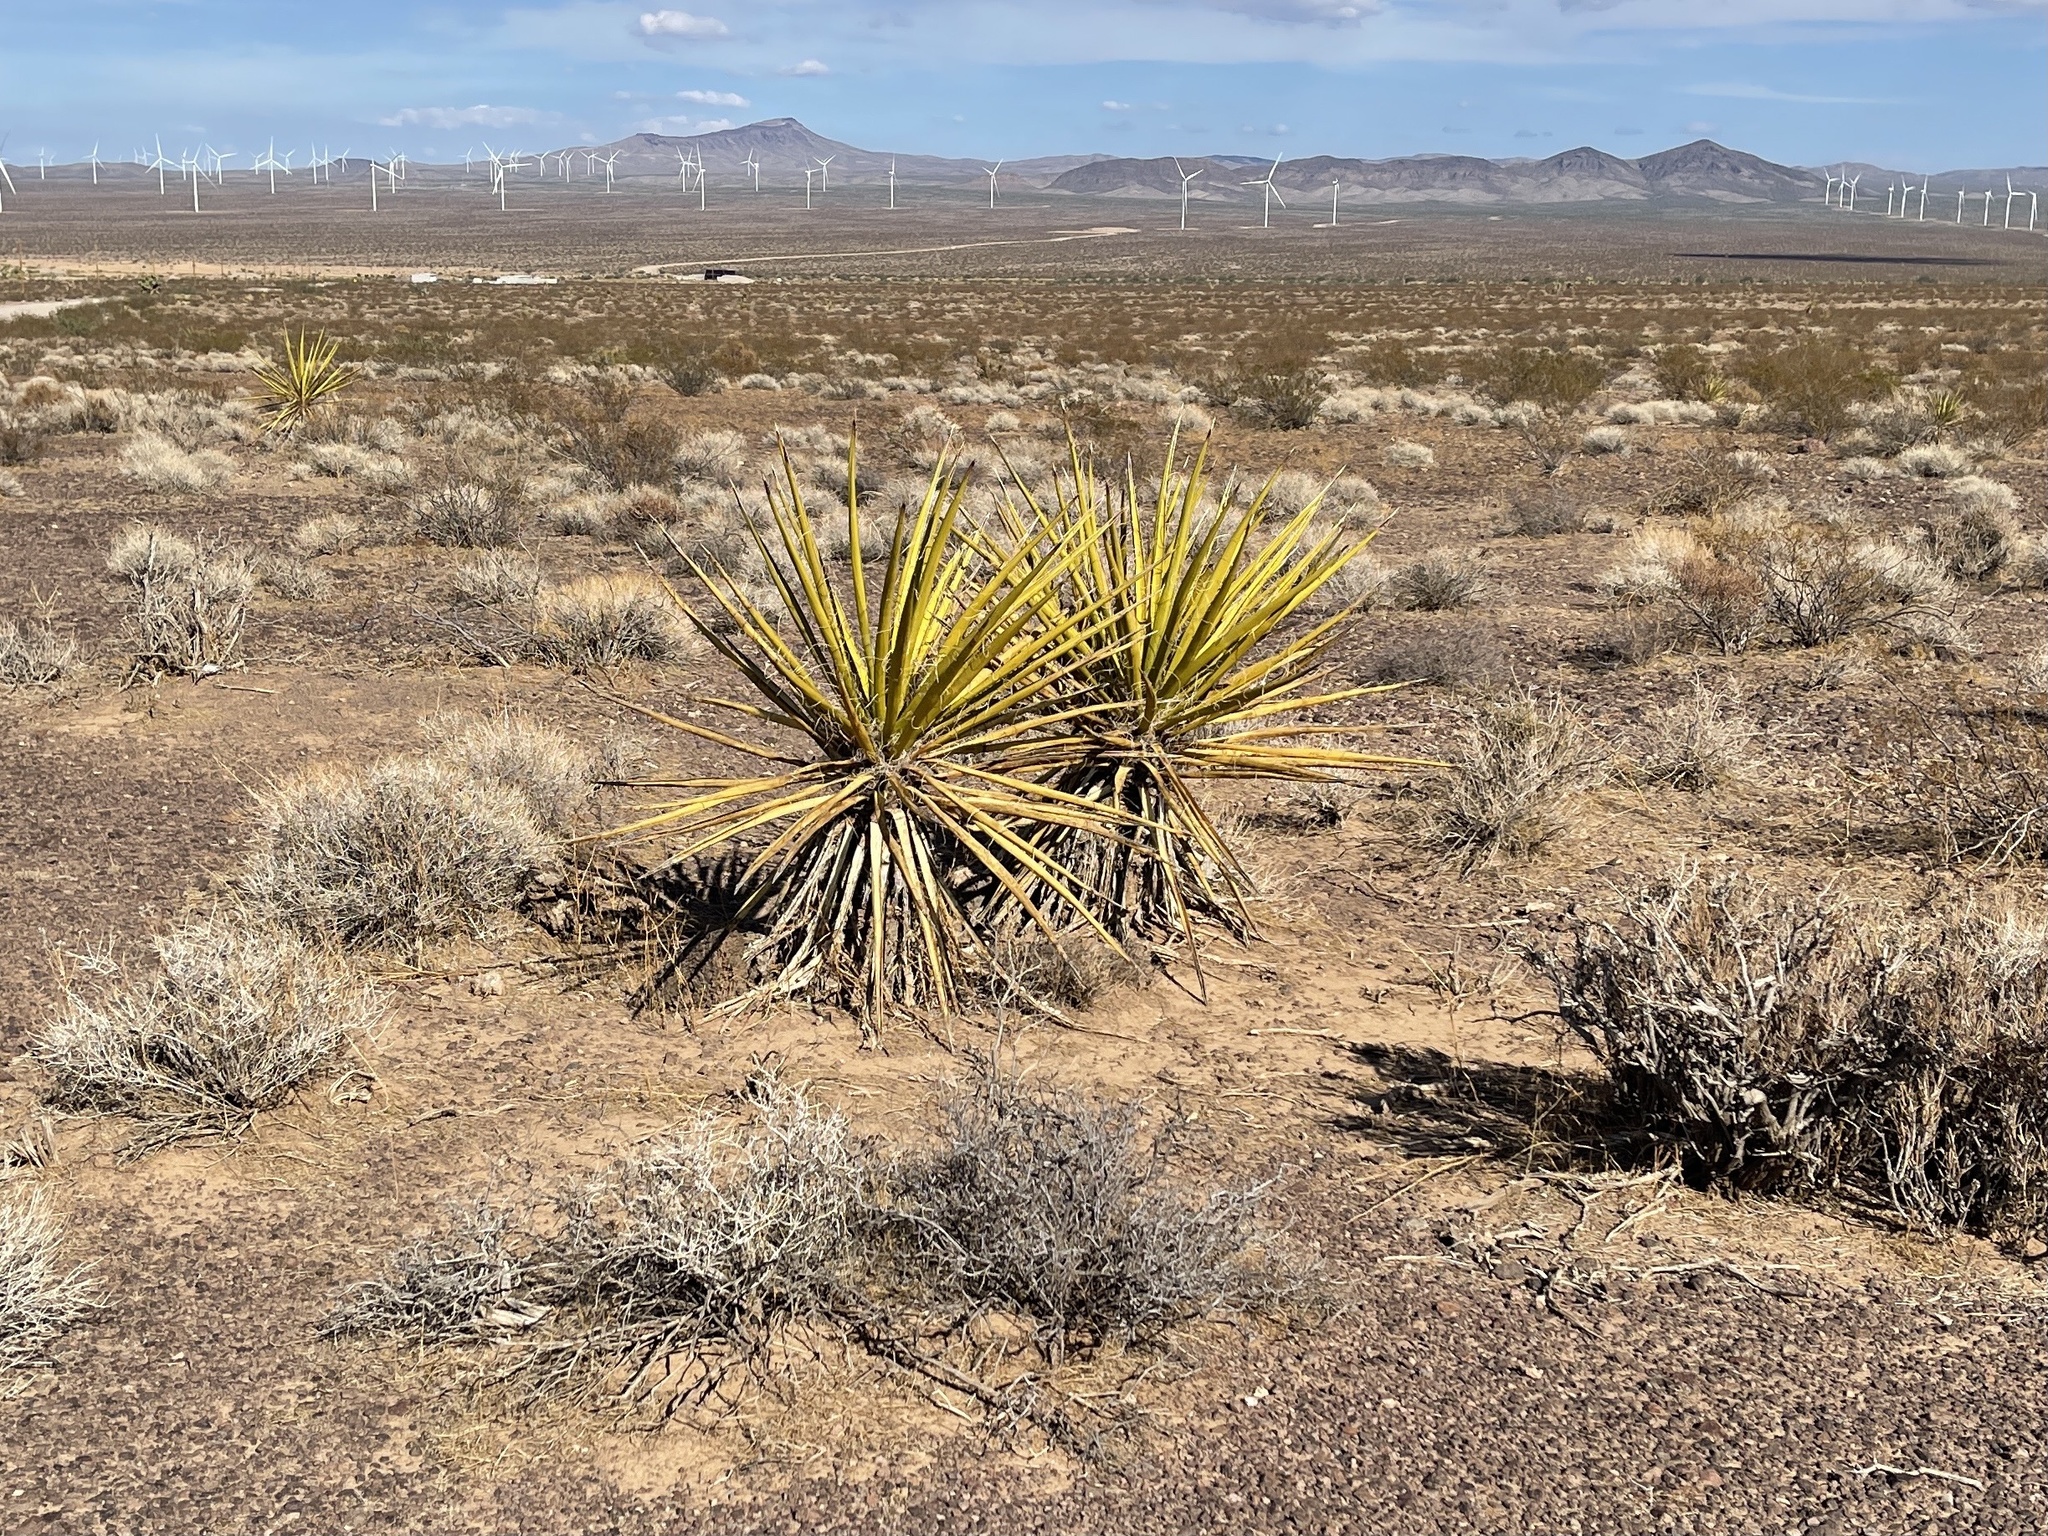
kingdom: Plantae
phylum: Tracheophyta
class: Liliopsida
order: Asparagales
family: Asparagaceae
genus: Yucca
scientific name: Yucca schidigera
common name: Mojave yucca
